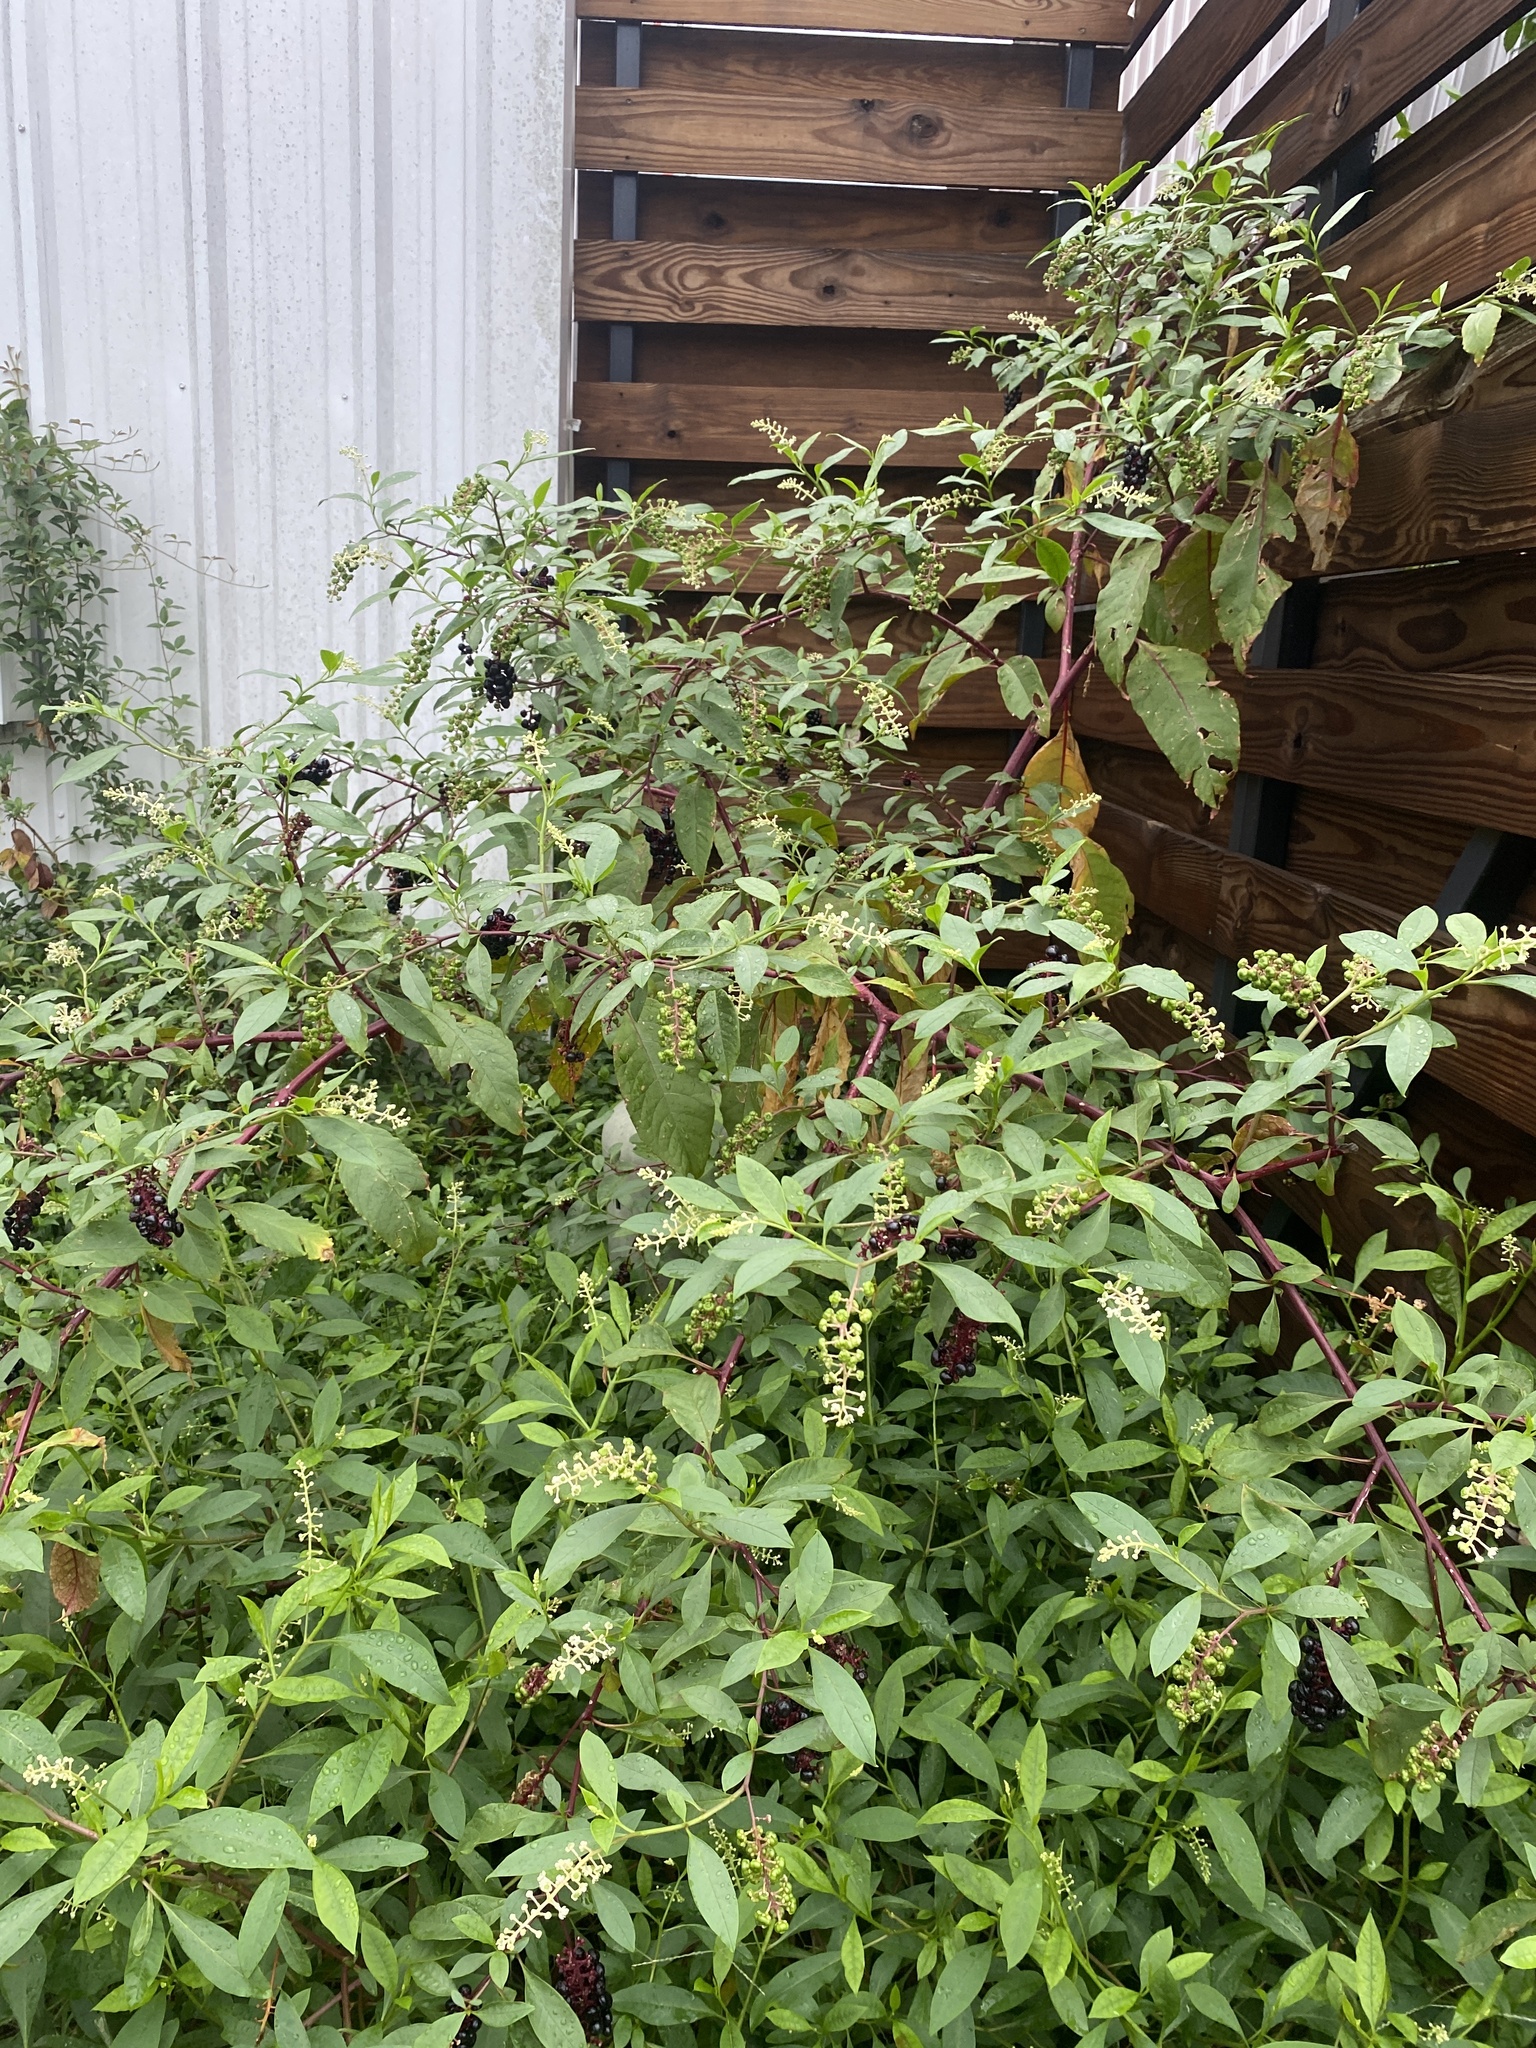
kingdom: Plantae
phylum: Tracheophyta
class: Magnoliopsida
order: Caryophyllales
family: Phytolaccaceae
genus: Phytolacca
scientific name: Phytolacca americana
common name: American pokeweed
